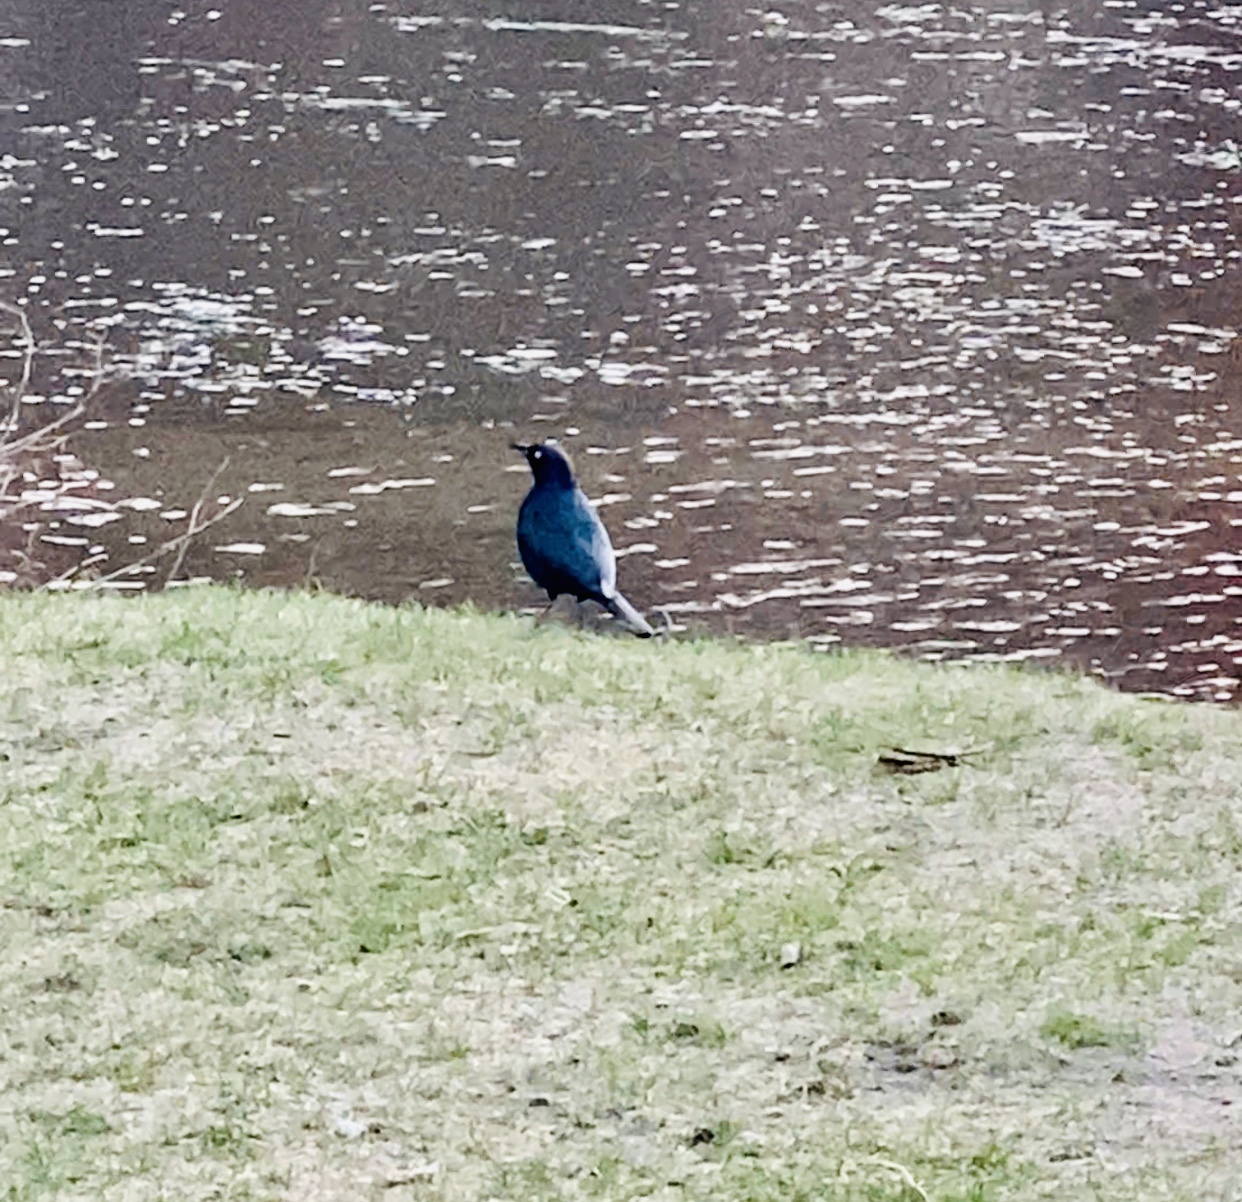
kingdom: Animalia
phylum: Chordata
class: Aves
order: Passeriformes
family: Icteridae
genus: Euphagus
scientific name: Euphagus cyanocephalus
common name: Brewer's blackbird
